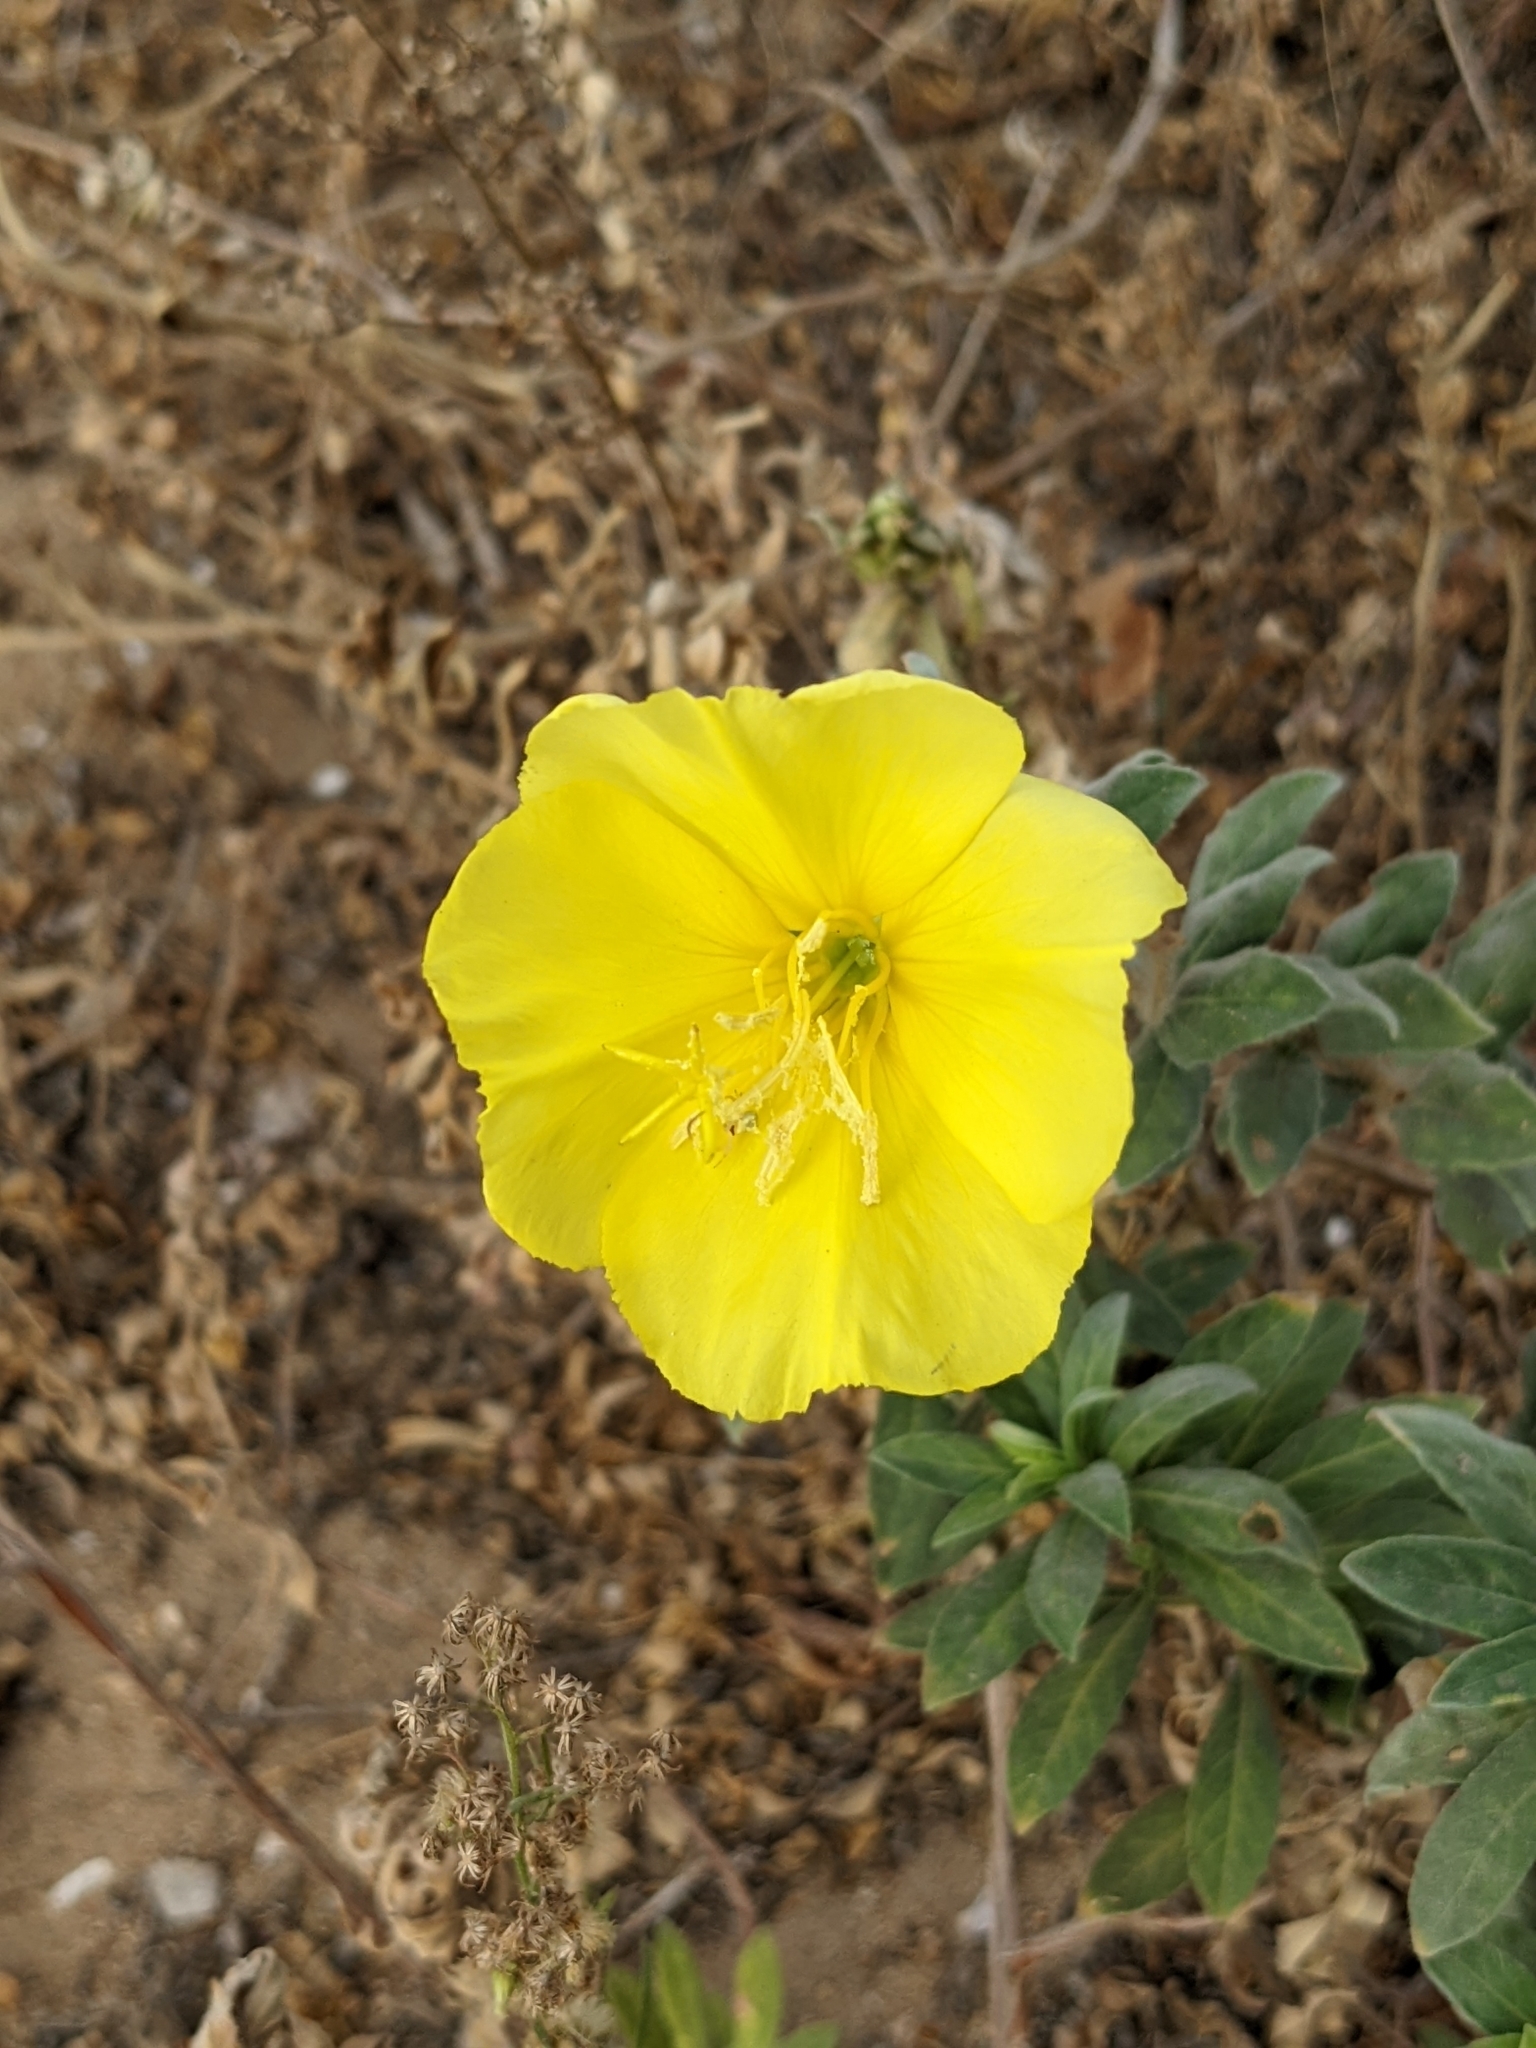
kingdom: Plantae
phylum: Tracheophyta
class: Magnoliopsida
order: Myrtales
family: Onagraceae
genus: Oenothera
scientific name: Oenothera drummondii
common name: Beach evening-primrose
